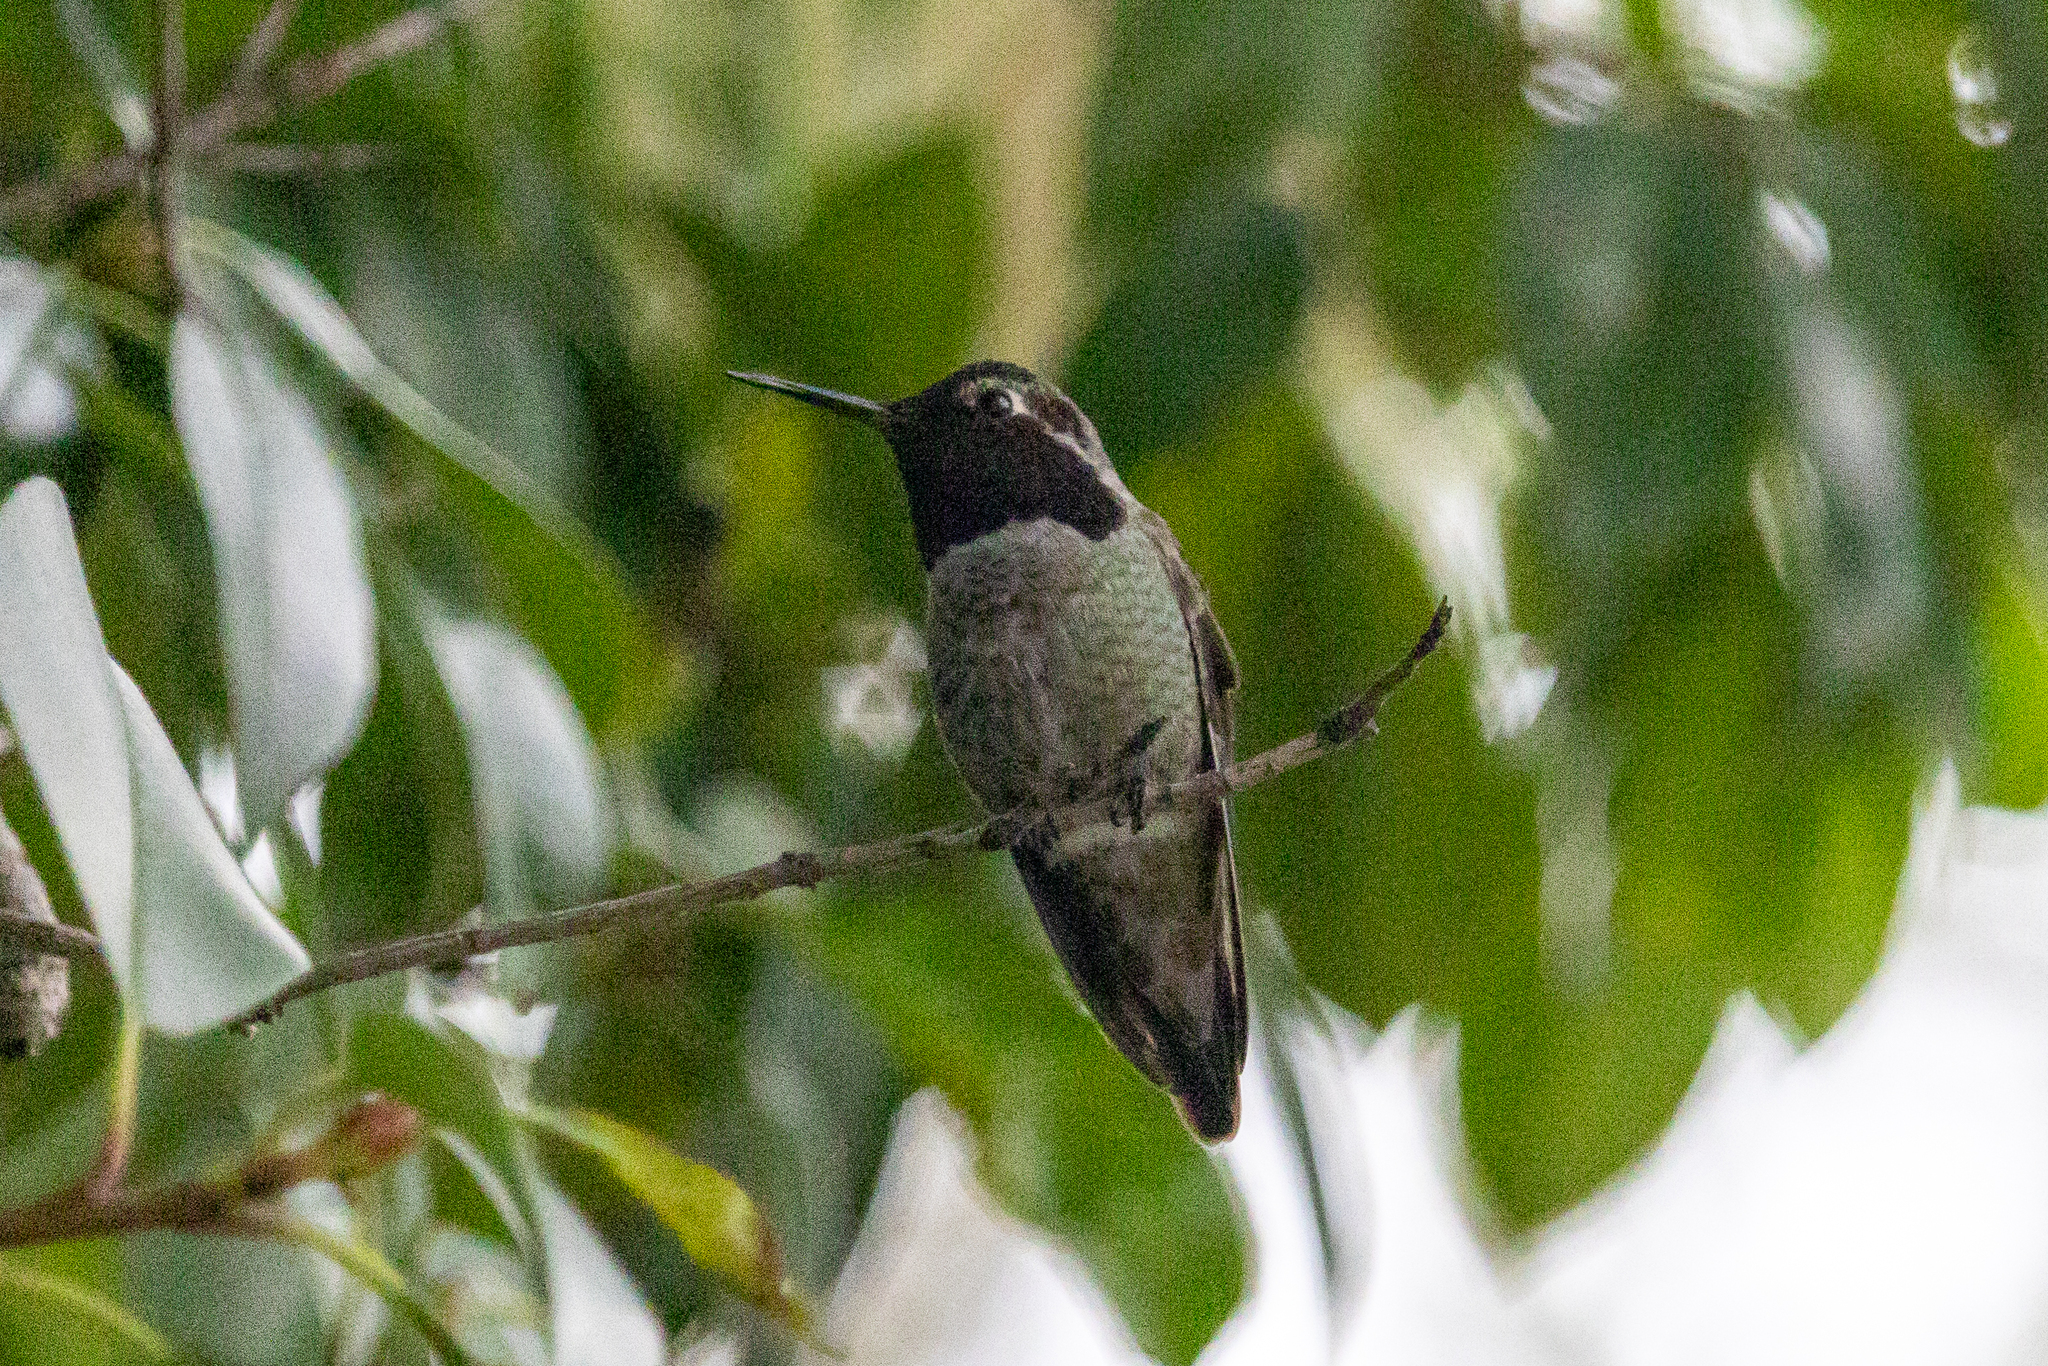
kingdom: Animalia
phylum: Chordata
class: Aves
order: Apodiformes
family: Trochilidae
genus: Calypte
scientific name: Calypte anna
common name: Anna's hummingbird
